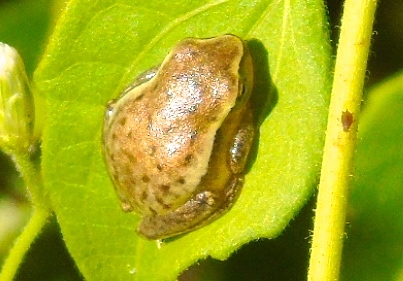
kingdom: Animalia
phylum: Chordata
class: Amphibia
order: Anura
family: Hylidae
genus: Tlalocohyla
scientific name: Tlalocohyla smithii
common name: Dwarf mexican treefrog
